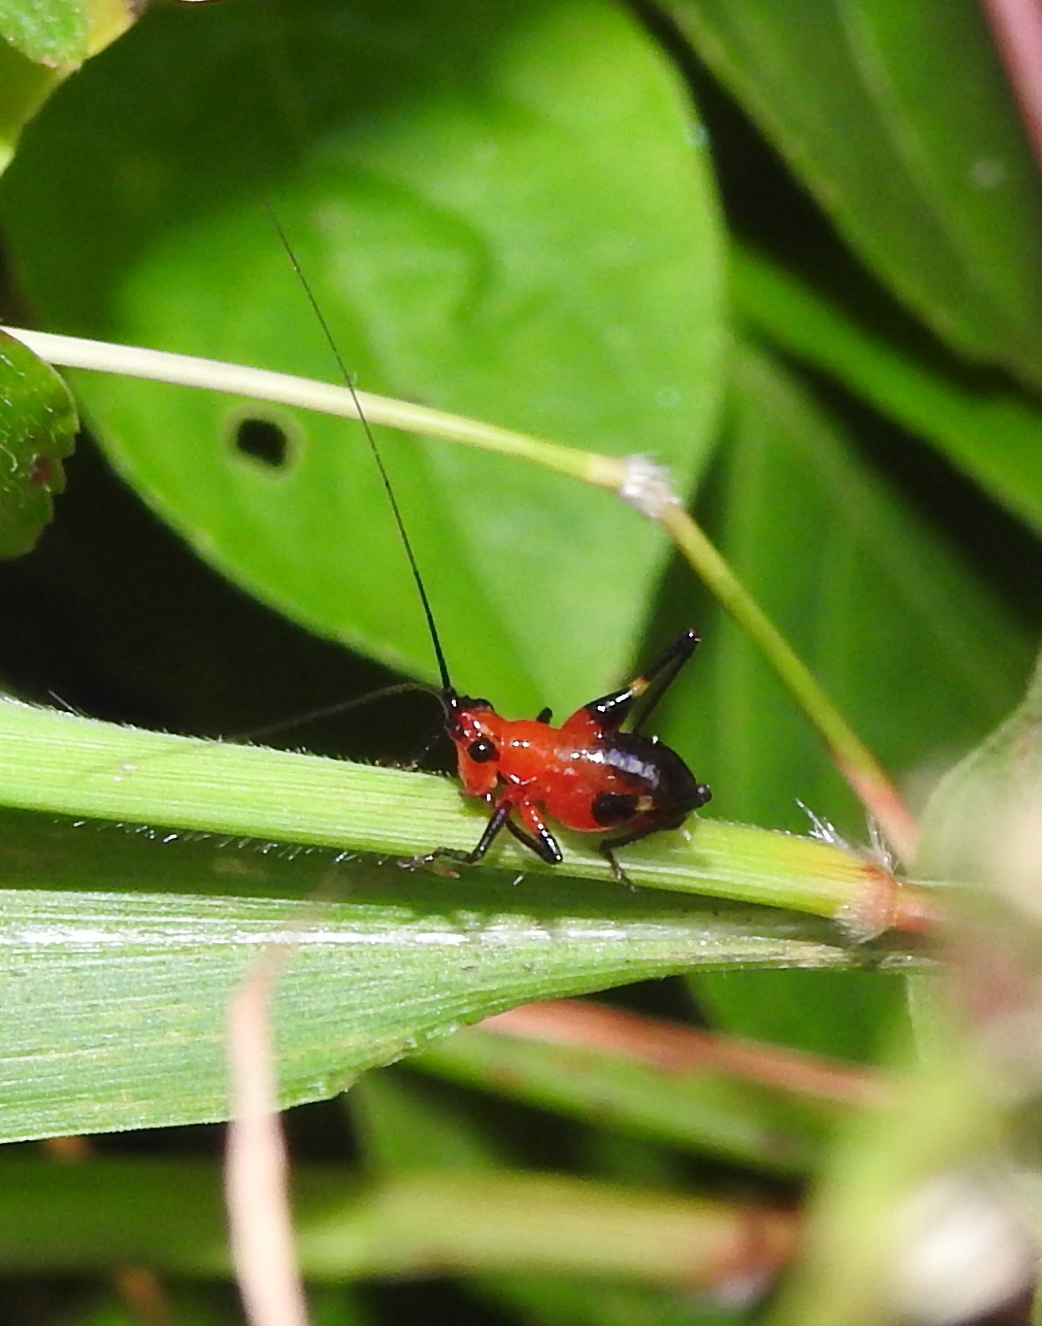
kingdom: Animalia
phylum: Arthropoda
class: Insecta
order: Orthoptera
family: Tettigoniidae
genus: Conocephalus
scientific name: Conocephalus melaenus
